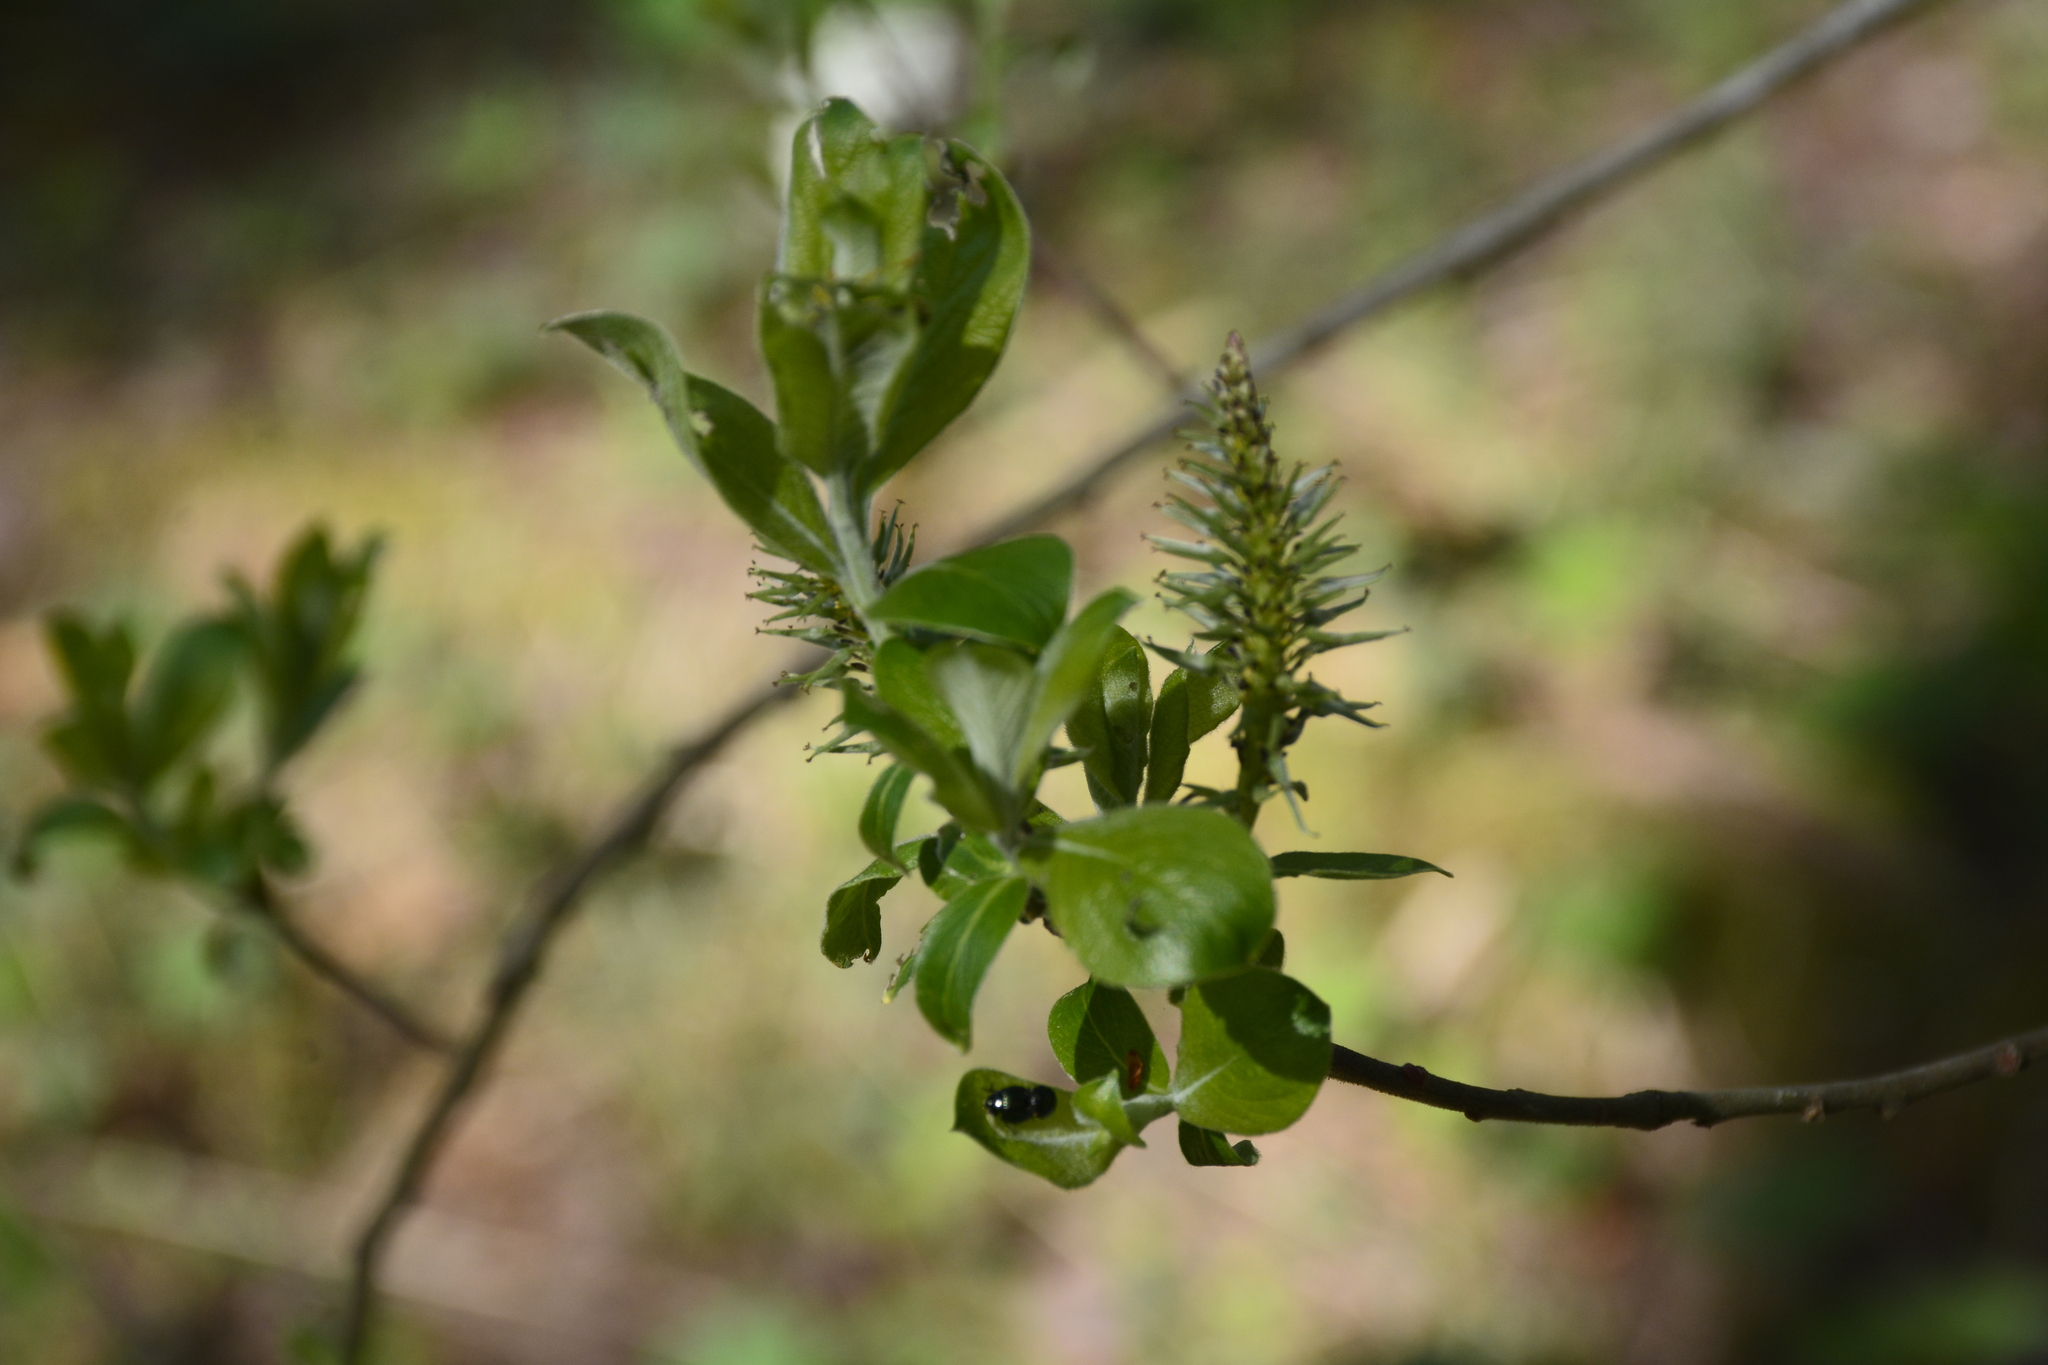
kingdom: Plantae
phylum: Tracheophyta
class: Magnoliopsida
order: Malpighiales
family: Salicaceae
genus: Salix
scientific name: Salix cinerea
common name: Common sallow
